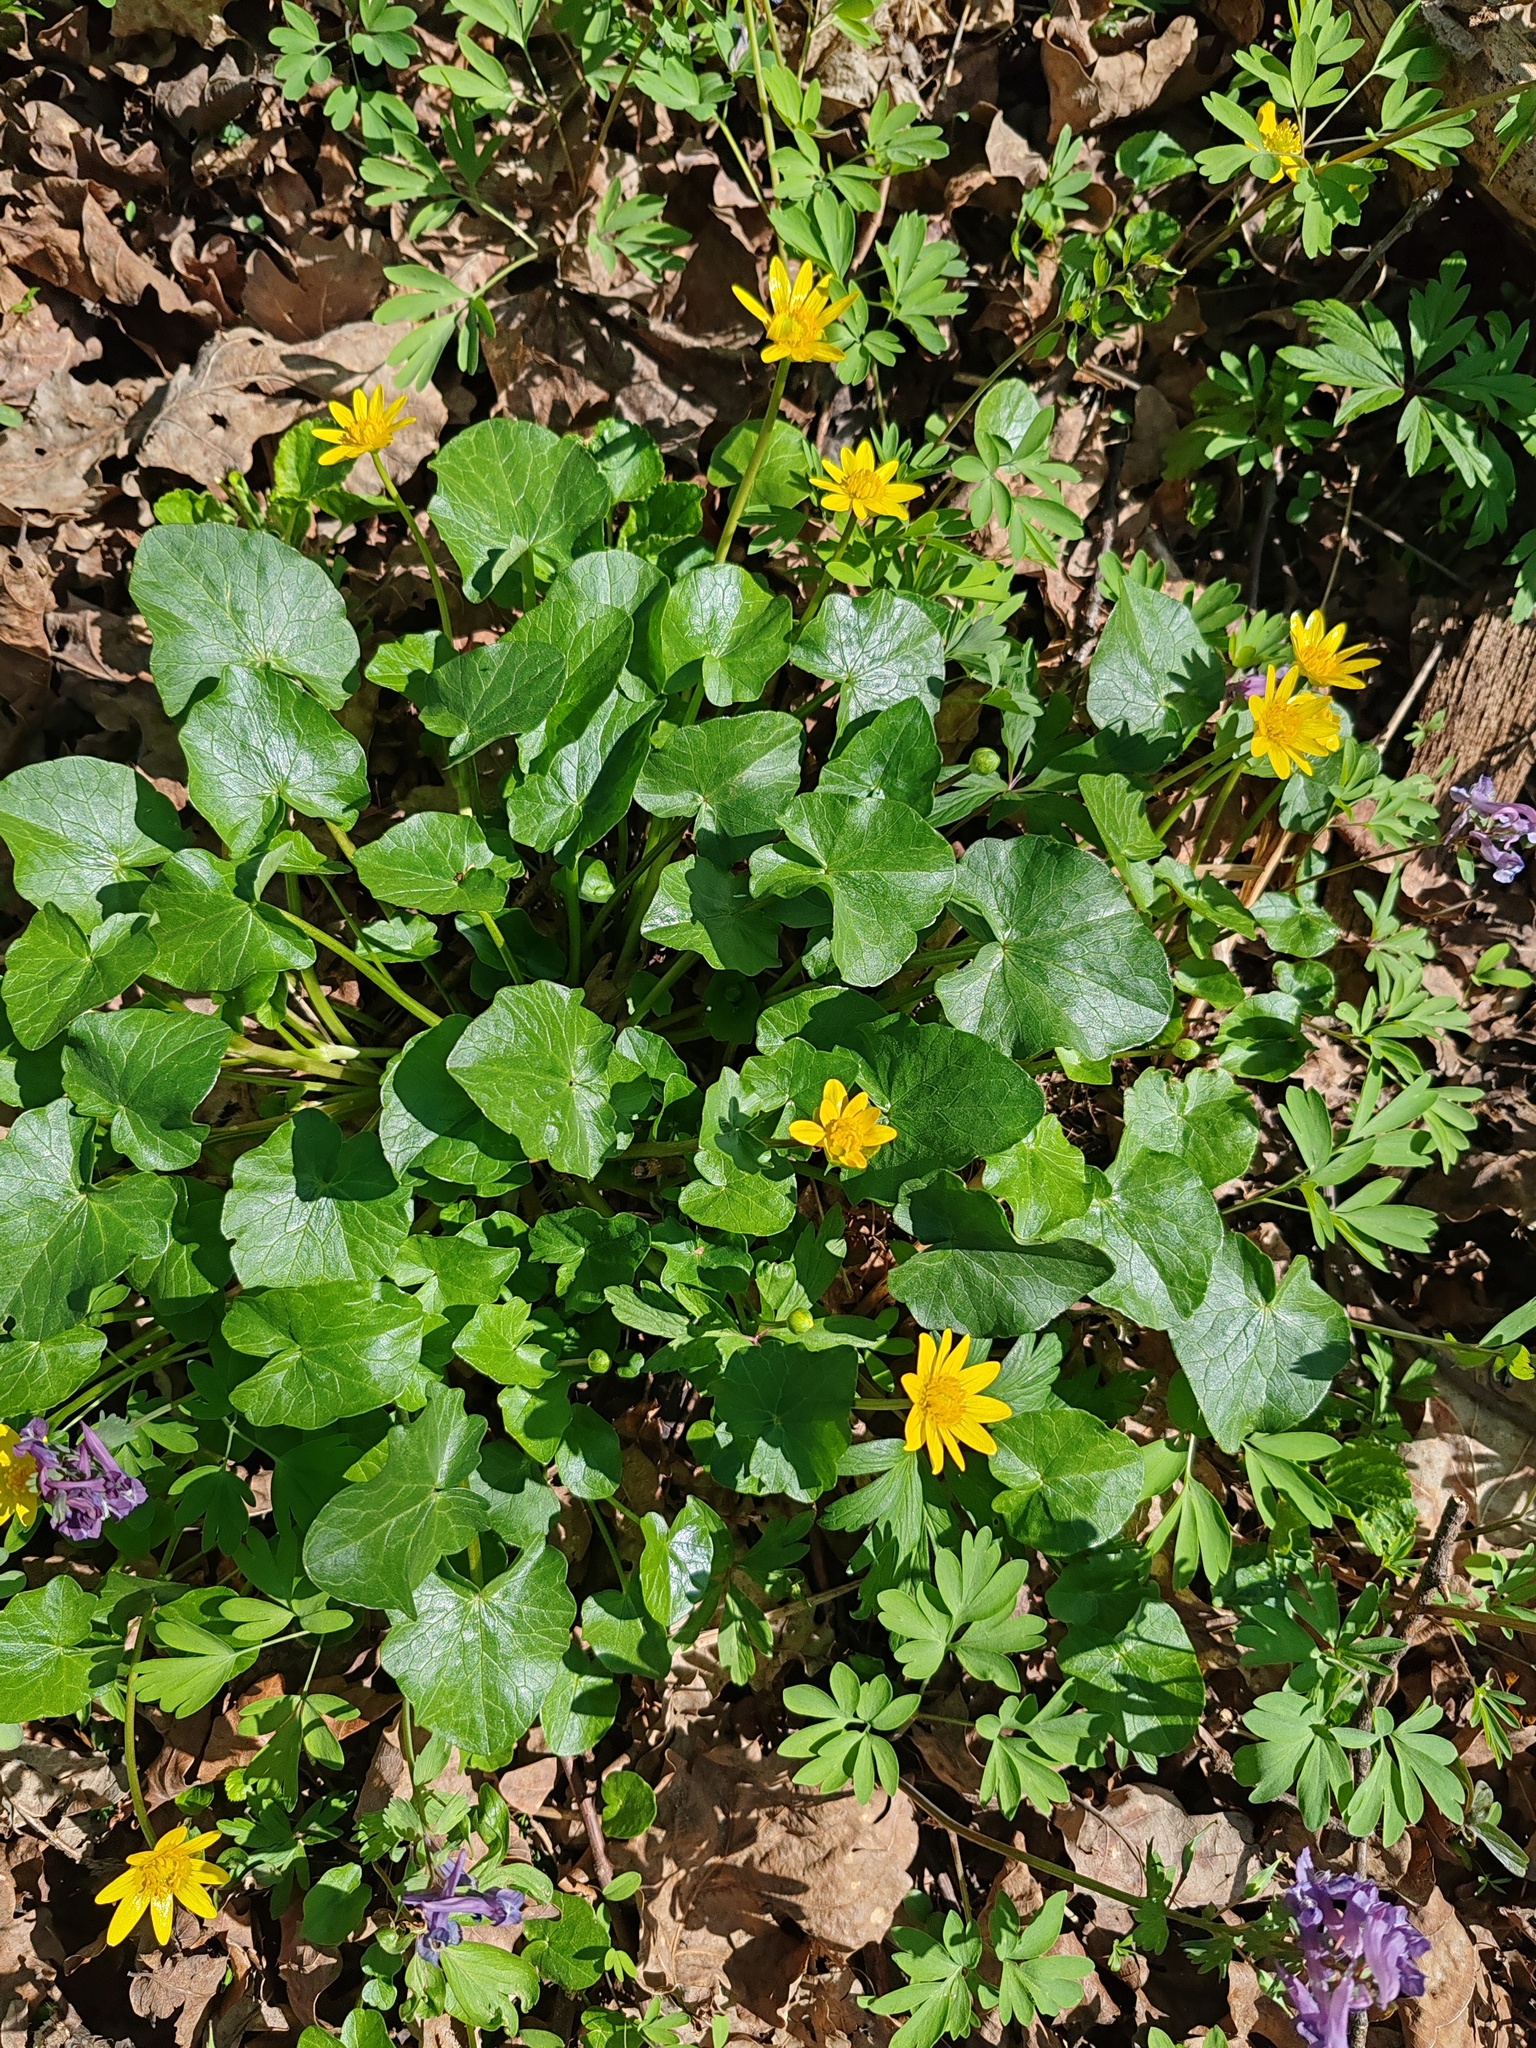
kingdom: Plantae
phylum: Tracheophyta
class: Magnoliopsida
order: Ranunculales
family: Ranunculaceae
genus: Ficaria
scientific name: Ficaria verna
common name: Lesser celandine
